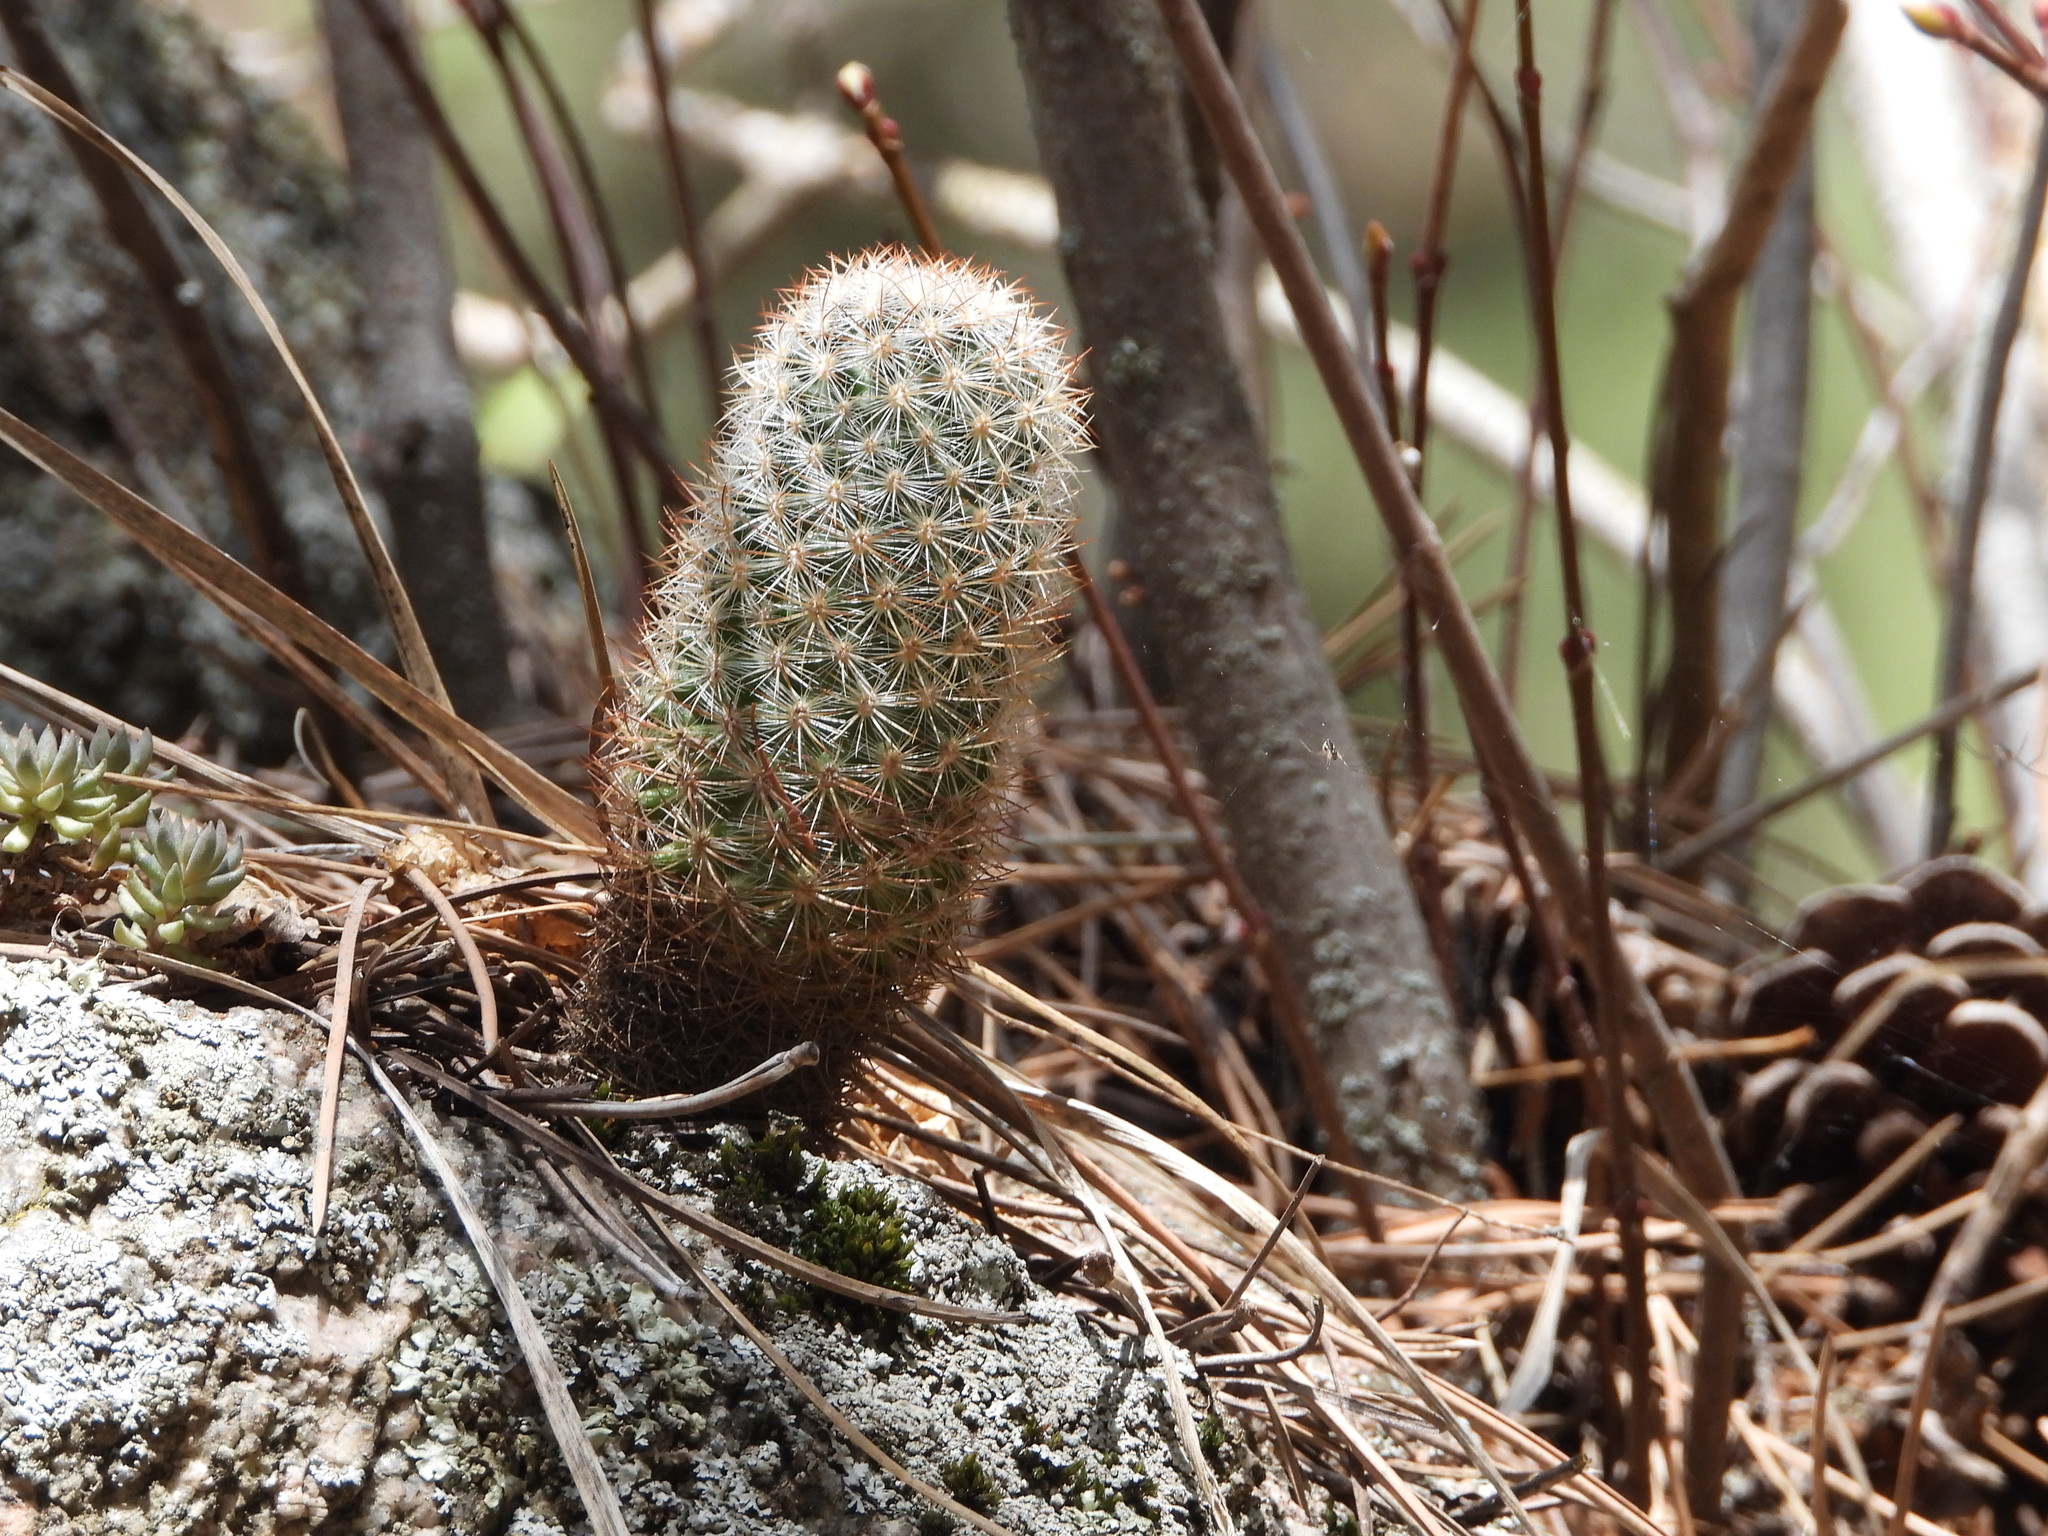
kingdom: Plantae
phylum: Tracheophyta
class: Magnoliopsida
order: Caryophyllales
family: Cactaceae
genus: Pediocactus
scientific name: Pediocactus simpsonii
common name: Simpson's hedgehog cactus
